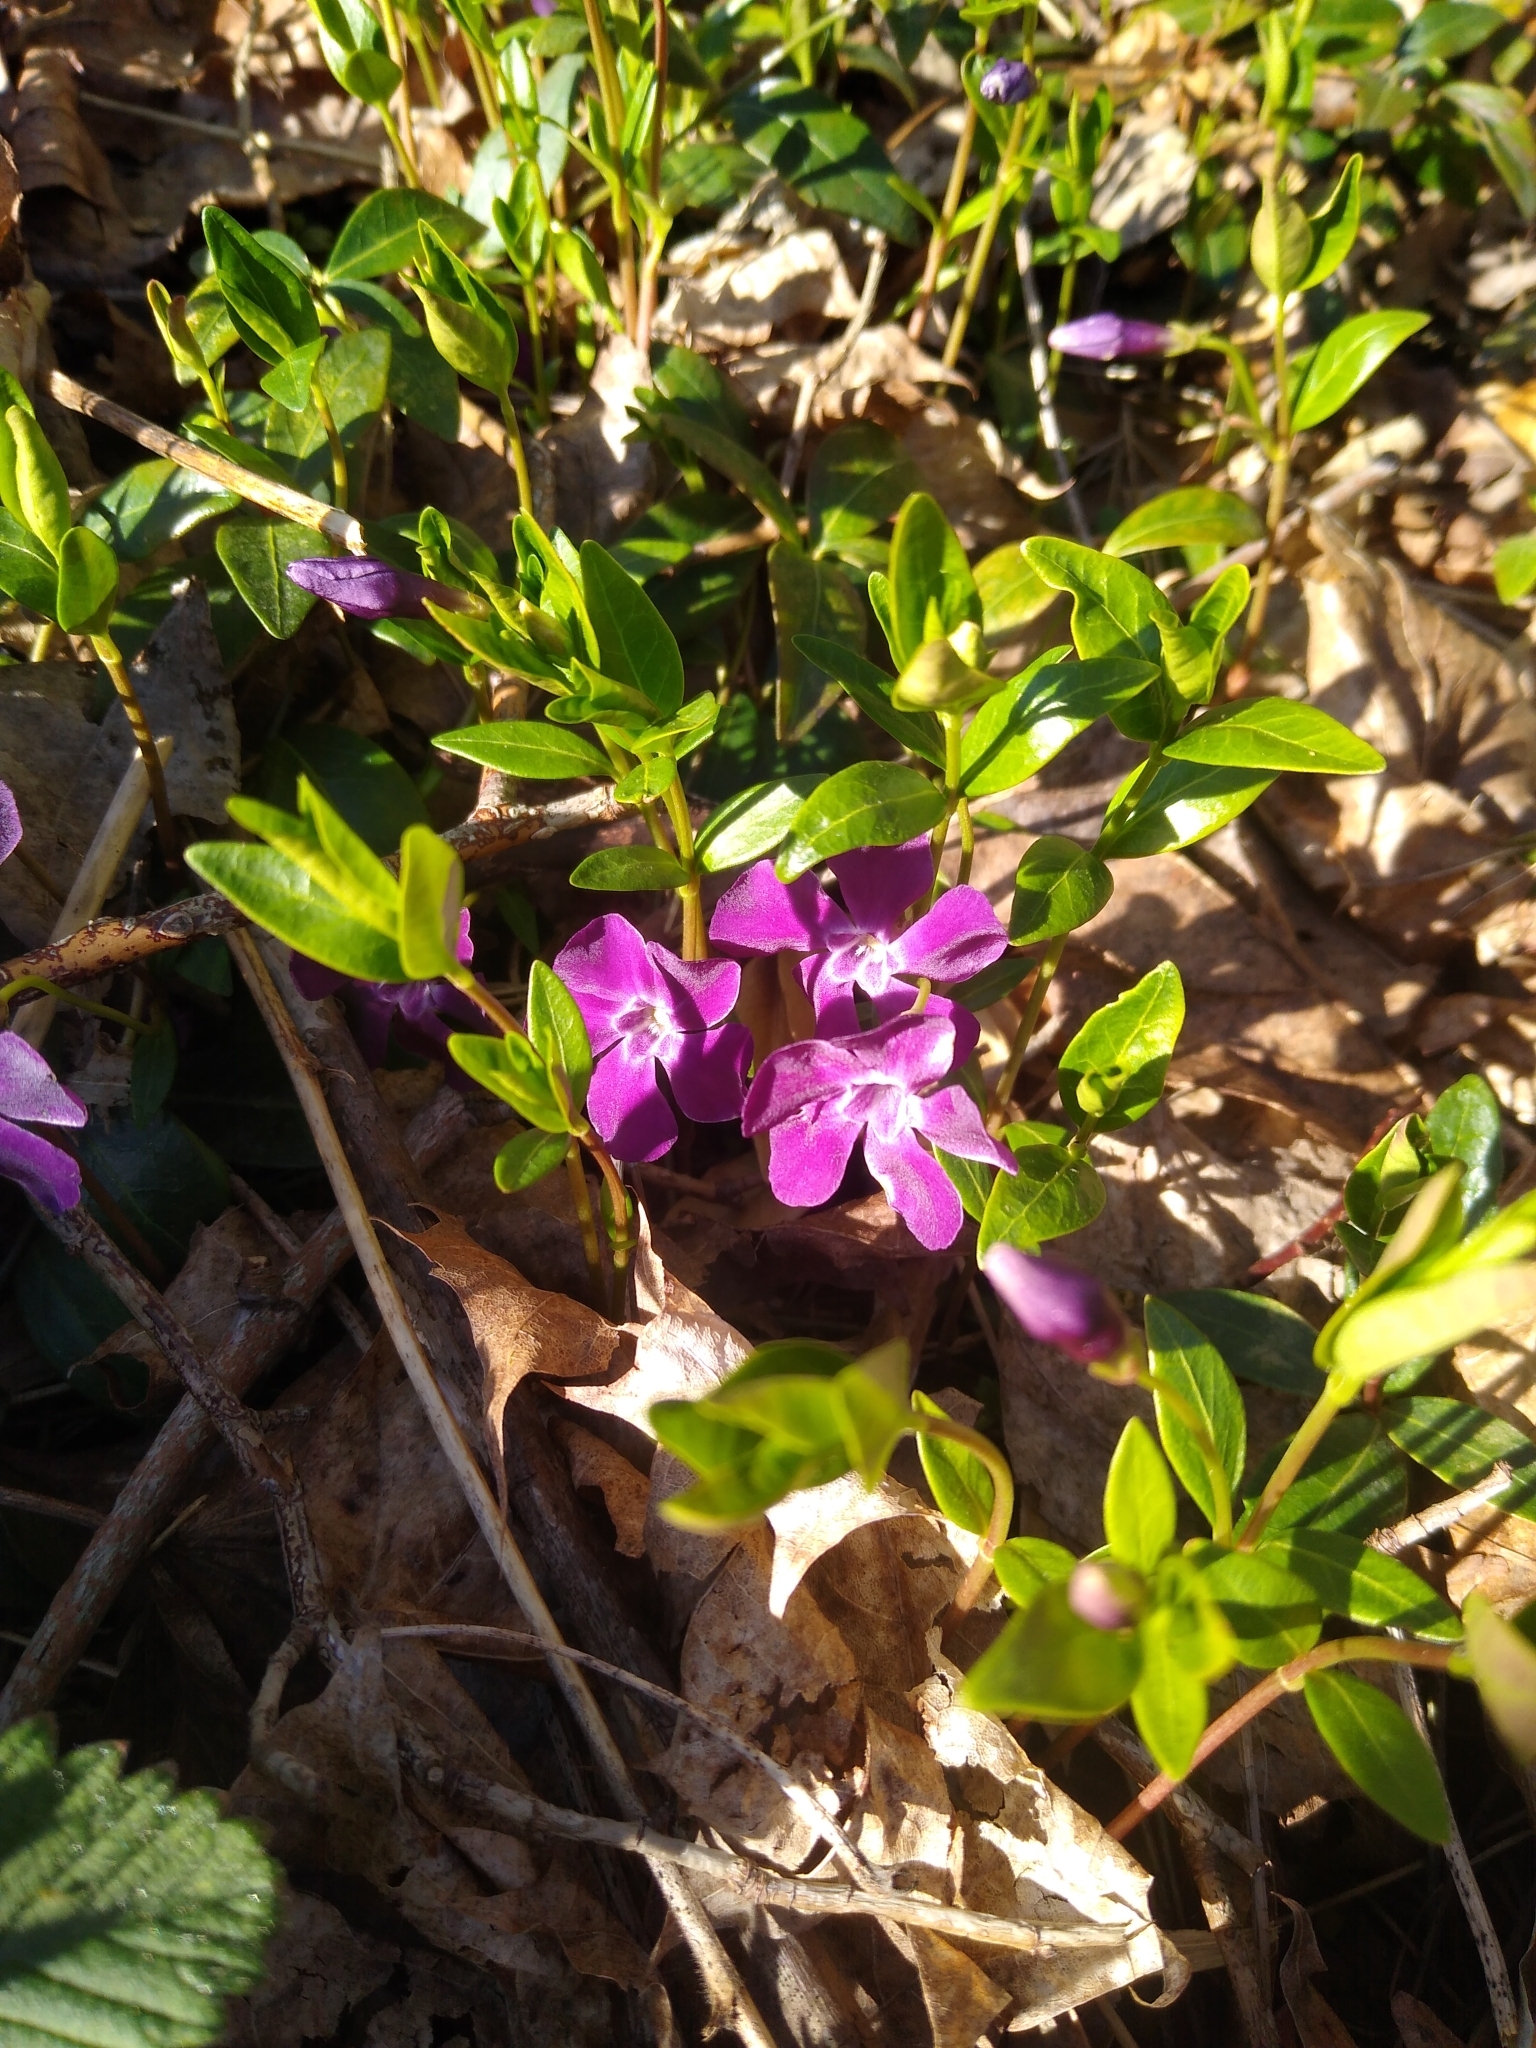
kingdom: Plantae
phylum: Tracheophyta
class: Magnoliopsida
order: Gentianales
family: Apocynaceae
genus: Vinca
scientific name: Vinca minor
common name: Lesser periwinkle
